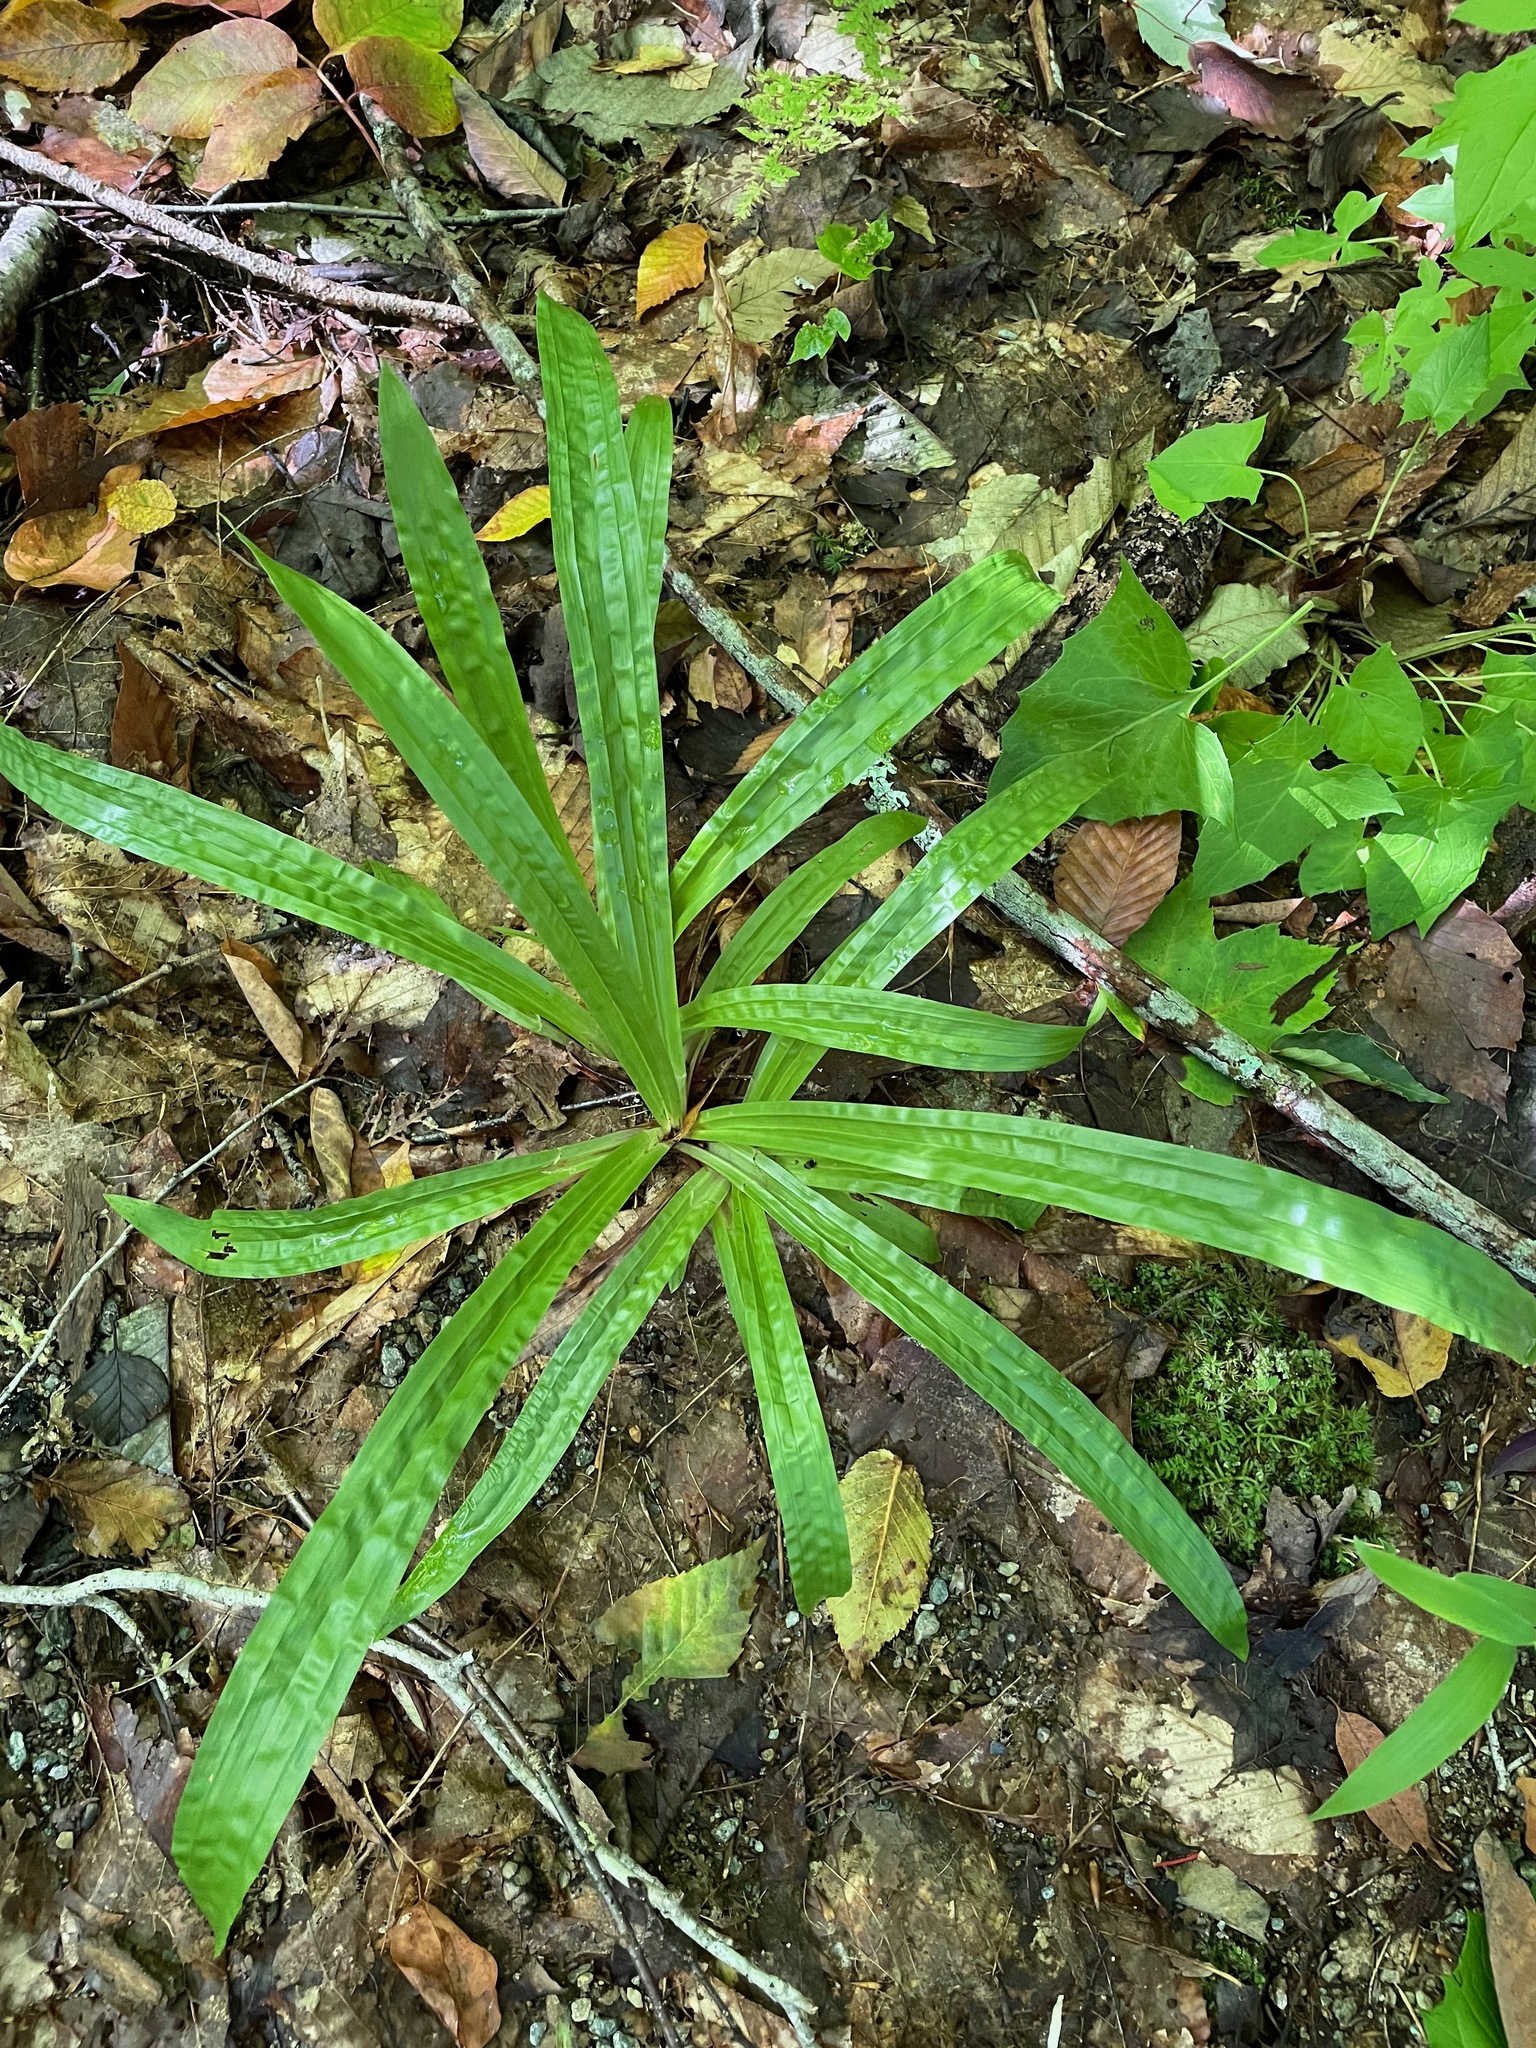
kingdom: Plantae
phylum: Tracheophyta
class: Liliopsida
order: Poales
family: Cyperaceae
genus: Carex
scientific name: Carex plantaginea
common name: Plantain-leaved sedge
